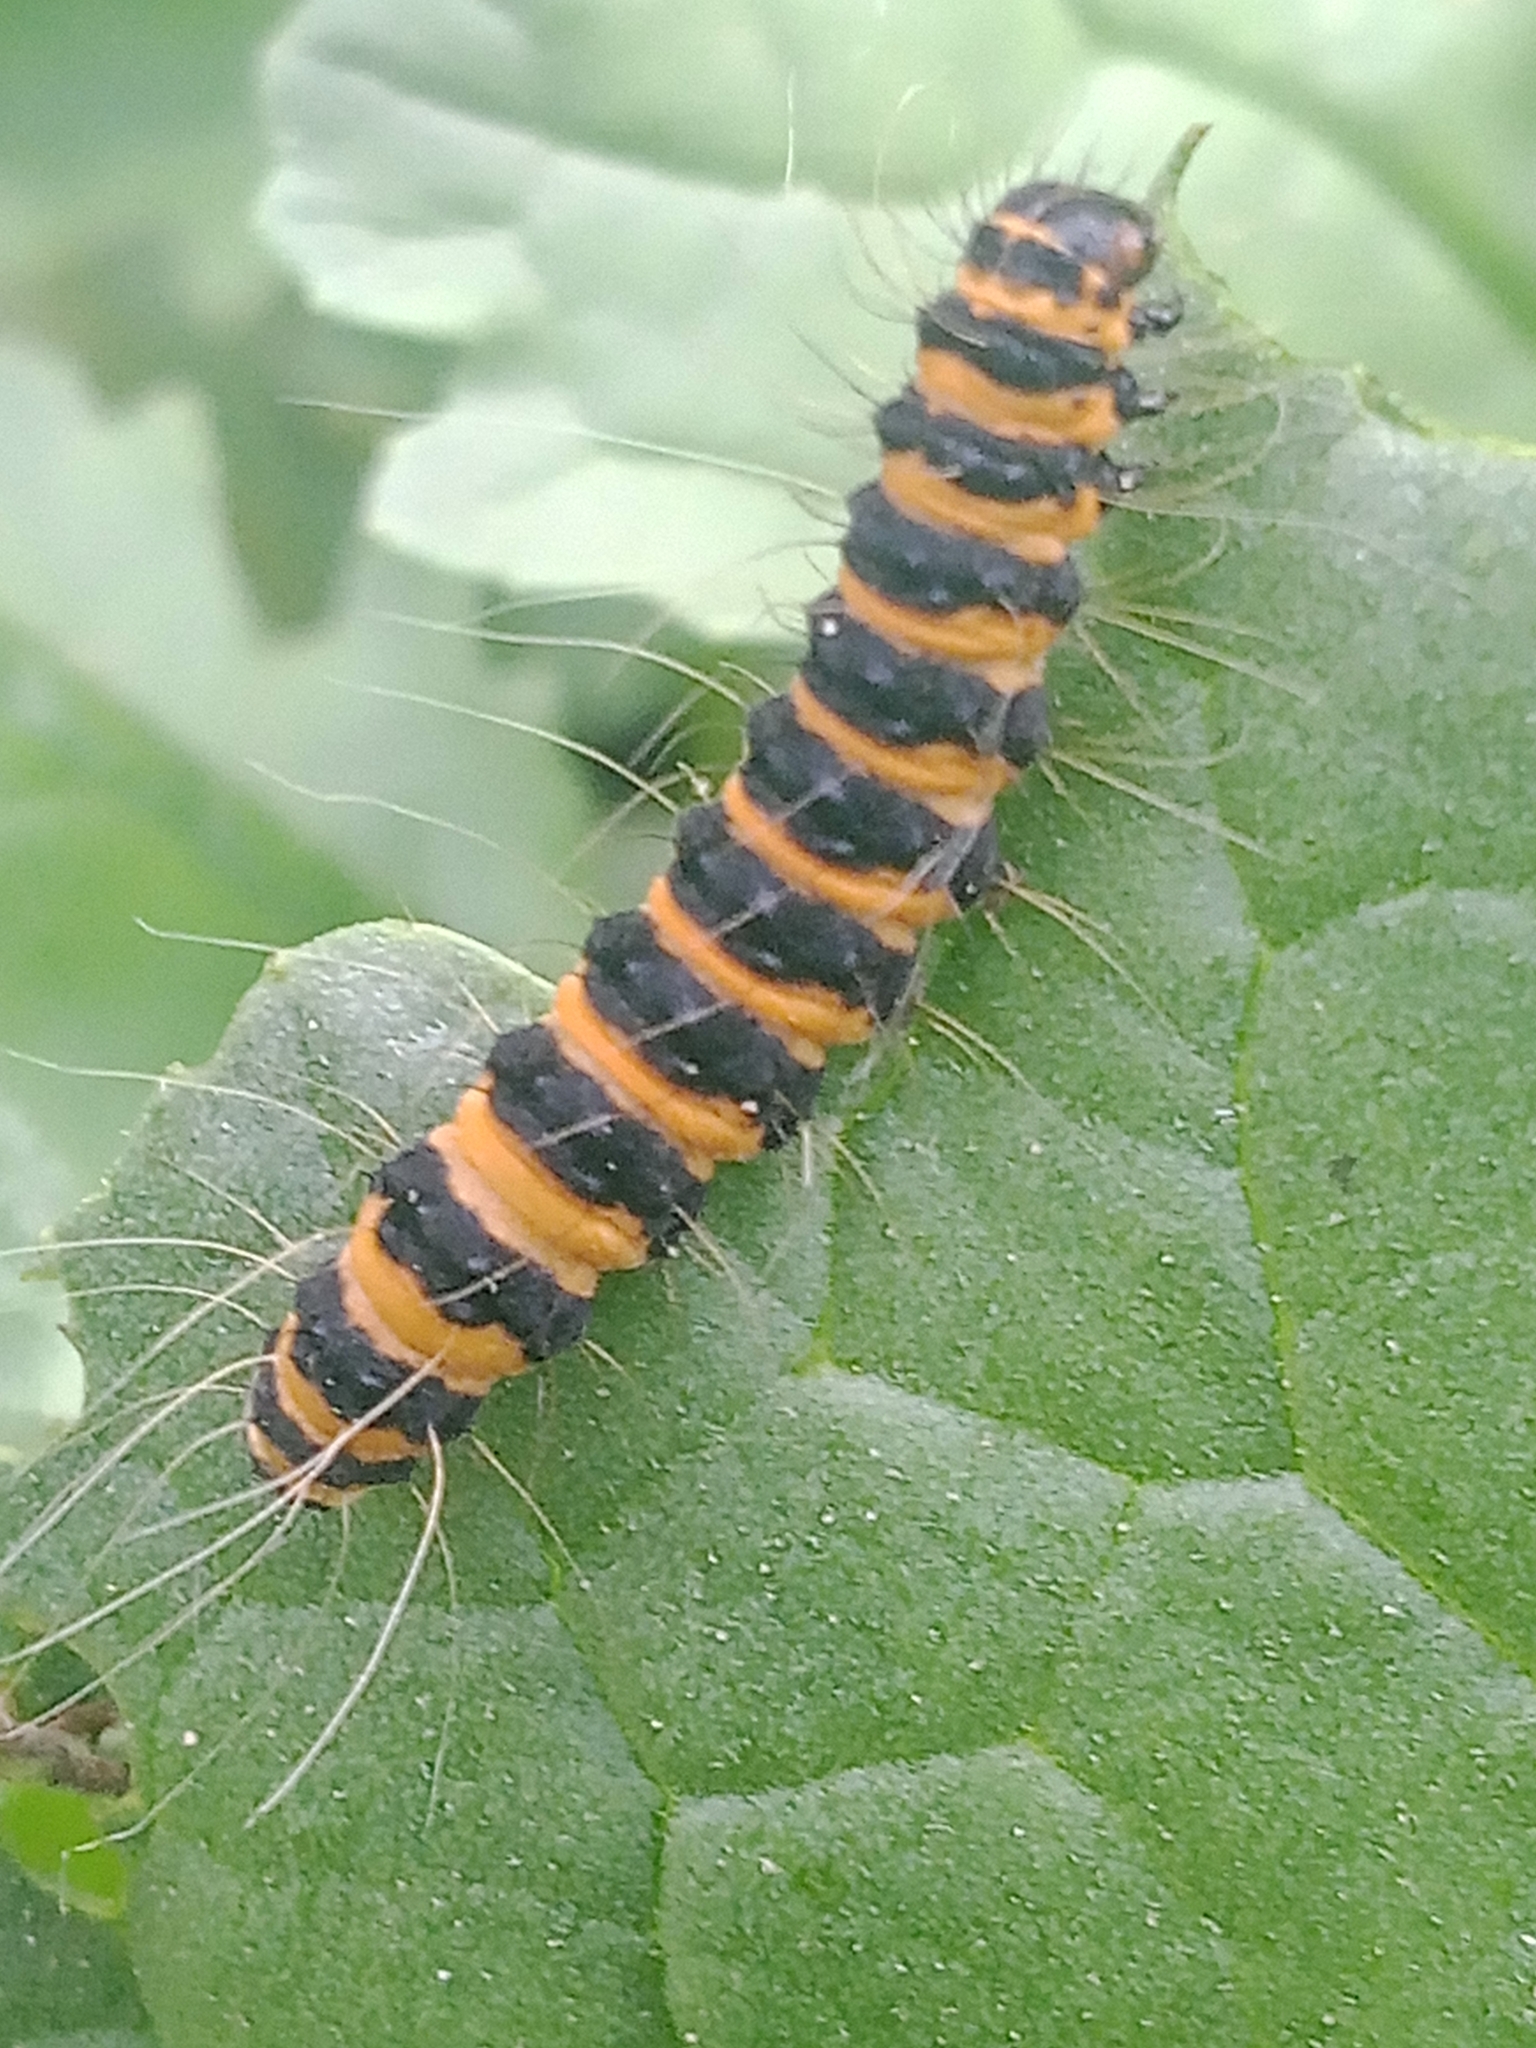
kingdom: Animalia
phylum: Arthropoda
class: Insecta
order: Lepidoptera
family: Erebidae
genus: Tyria
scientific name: Tyria jacobaeae
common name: Cinnabar
